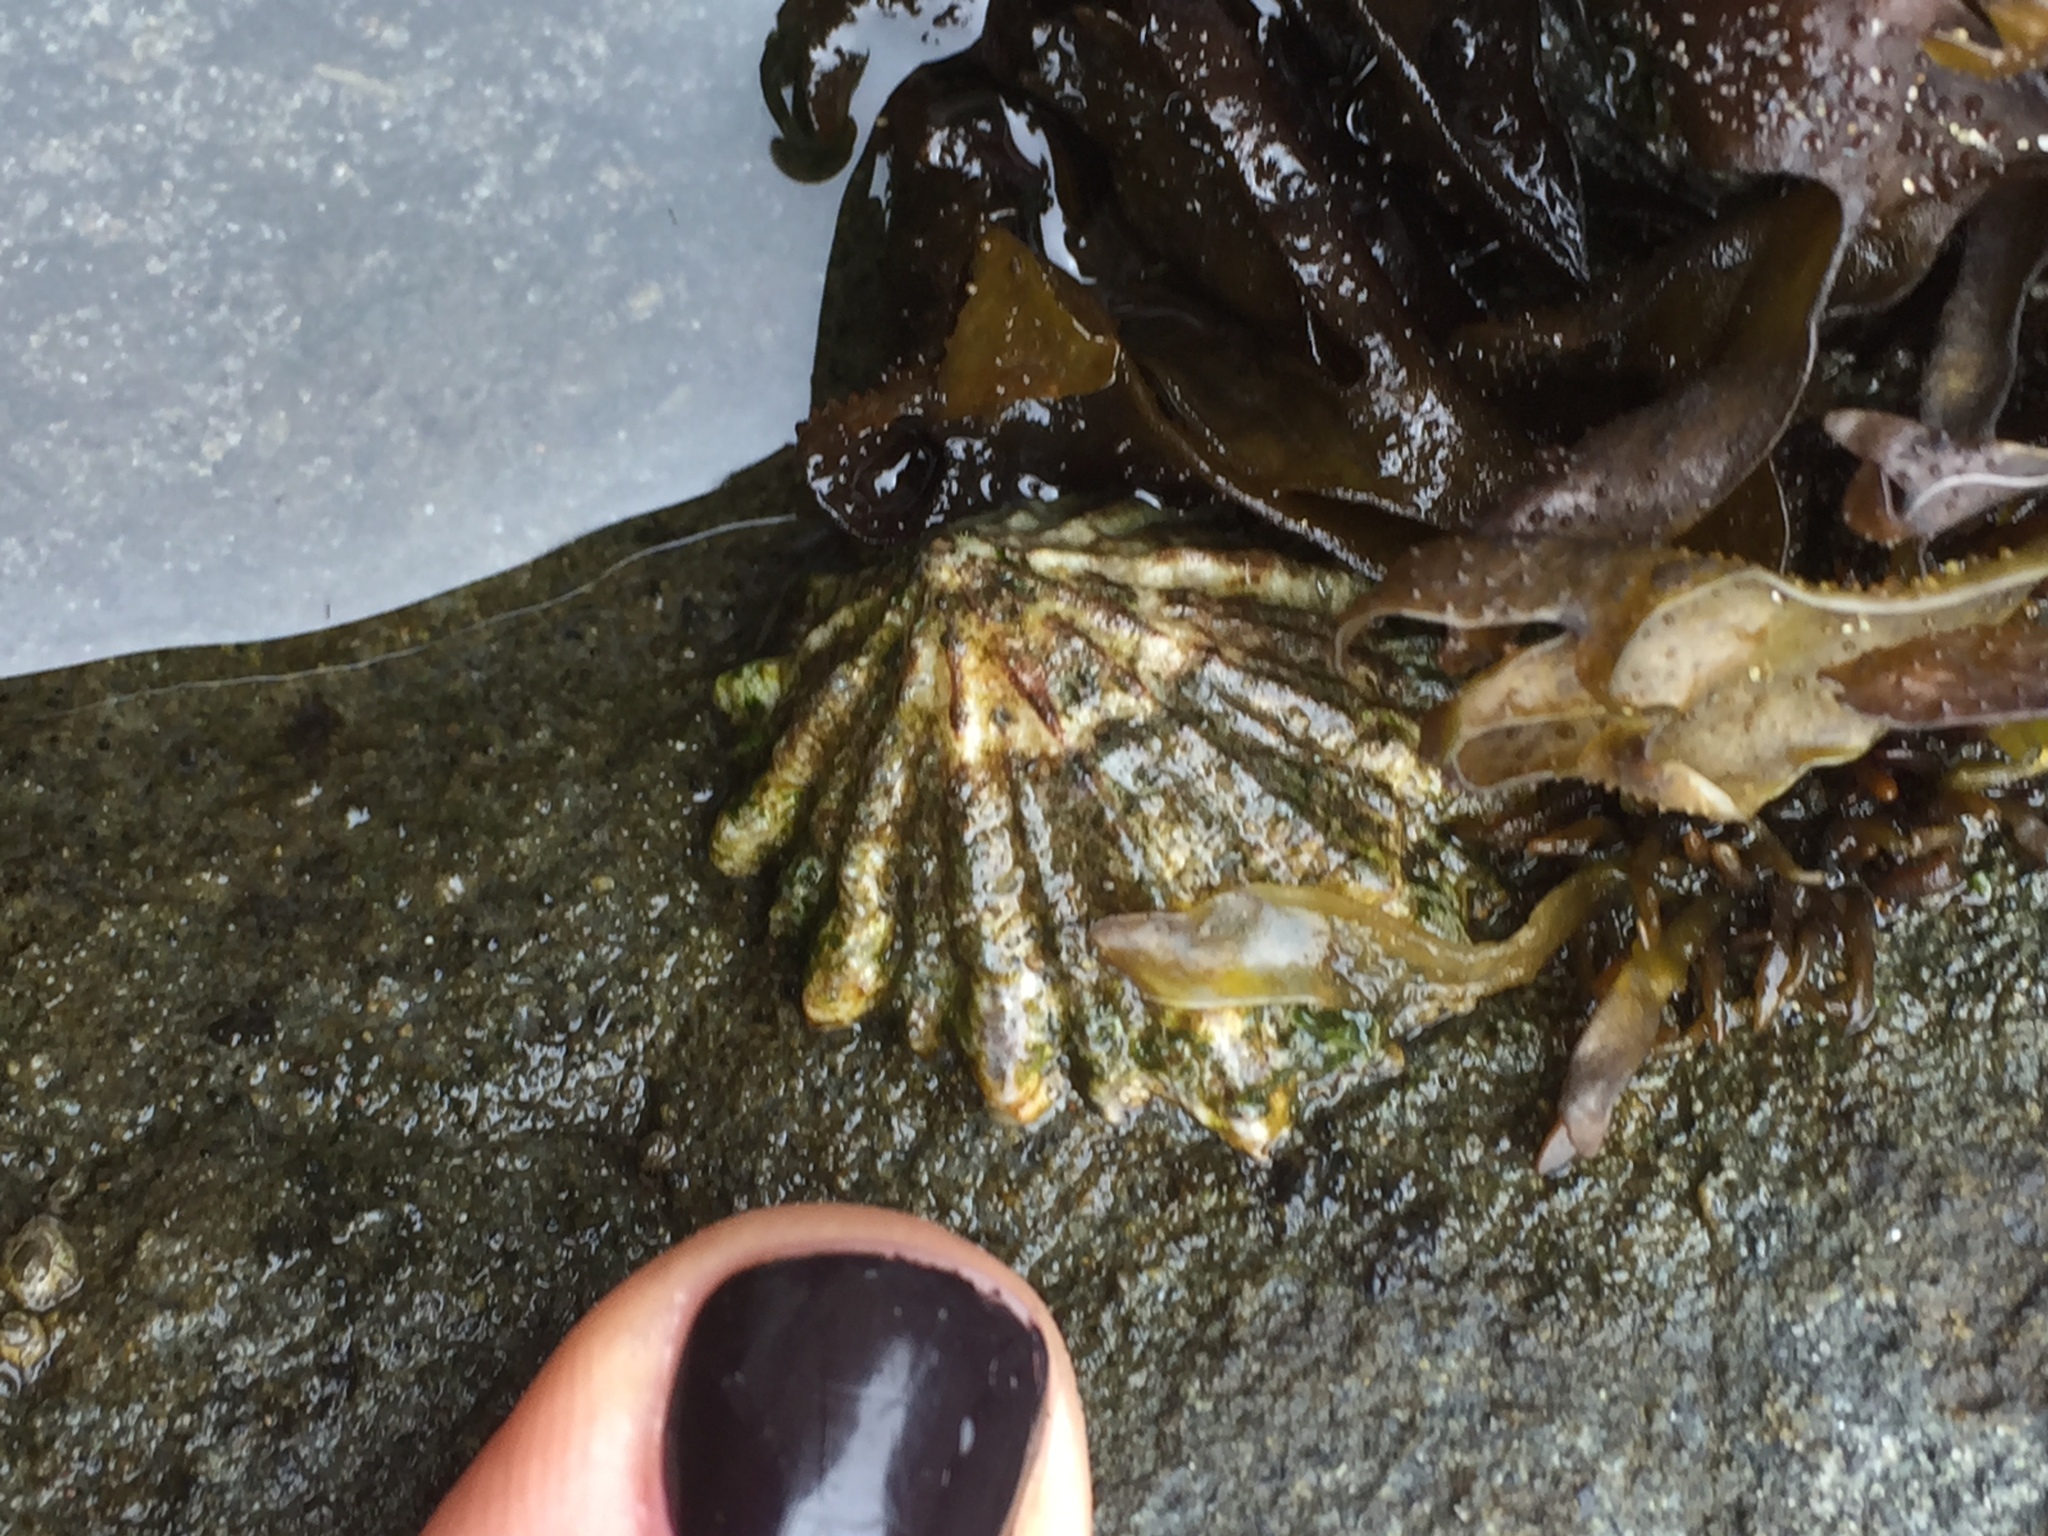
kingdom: Animalia
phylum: Mollusca
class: Gastropoda
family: Lottiidae
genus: Lottia
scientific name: Lottia scabra
